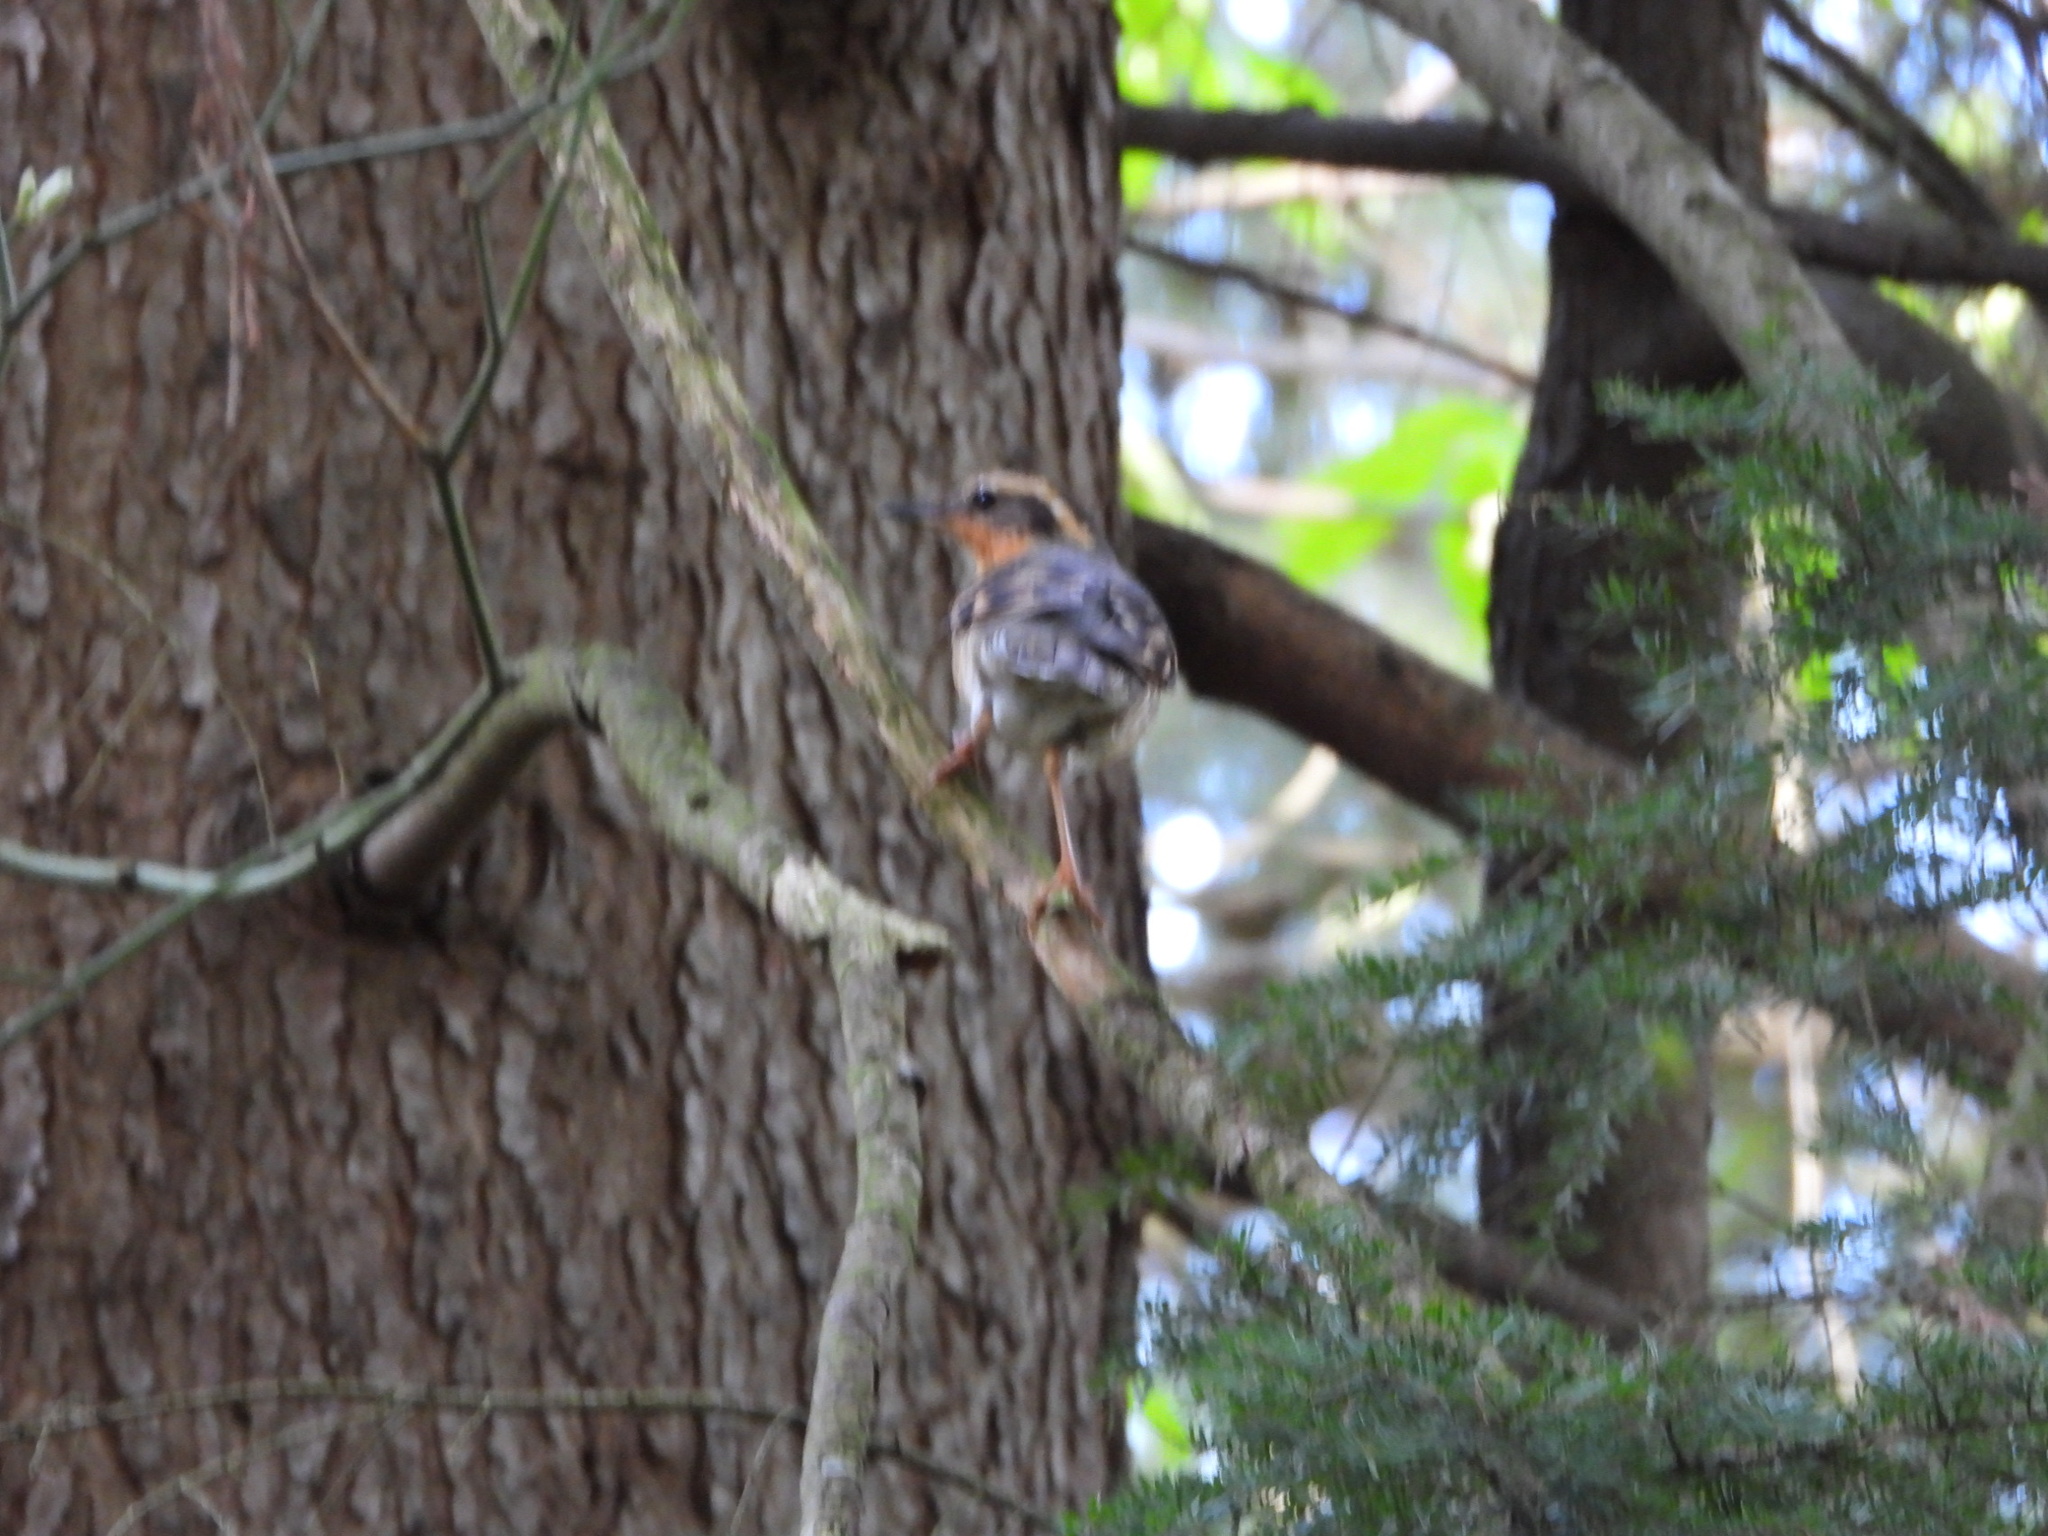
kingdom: Animalia
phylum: Chordata
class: Aves
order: Passeriformes
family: Turdidae
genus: Ixoreus
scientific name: Ixoreus naevius
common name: Varied thrush
